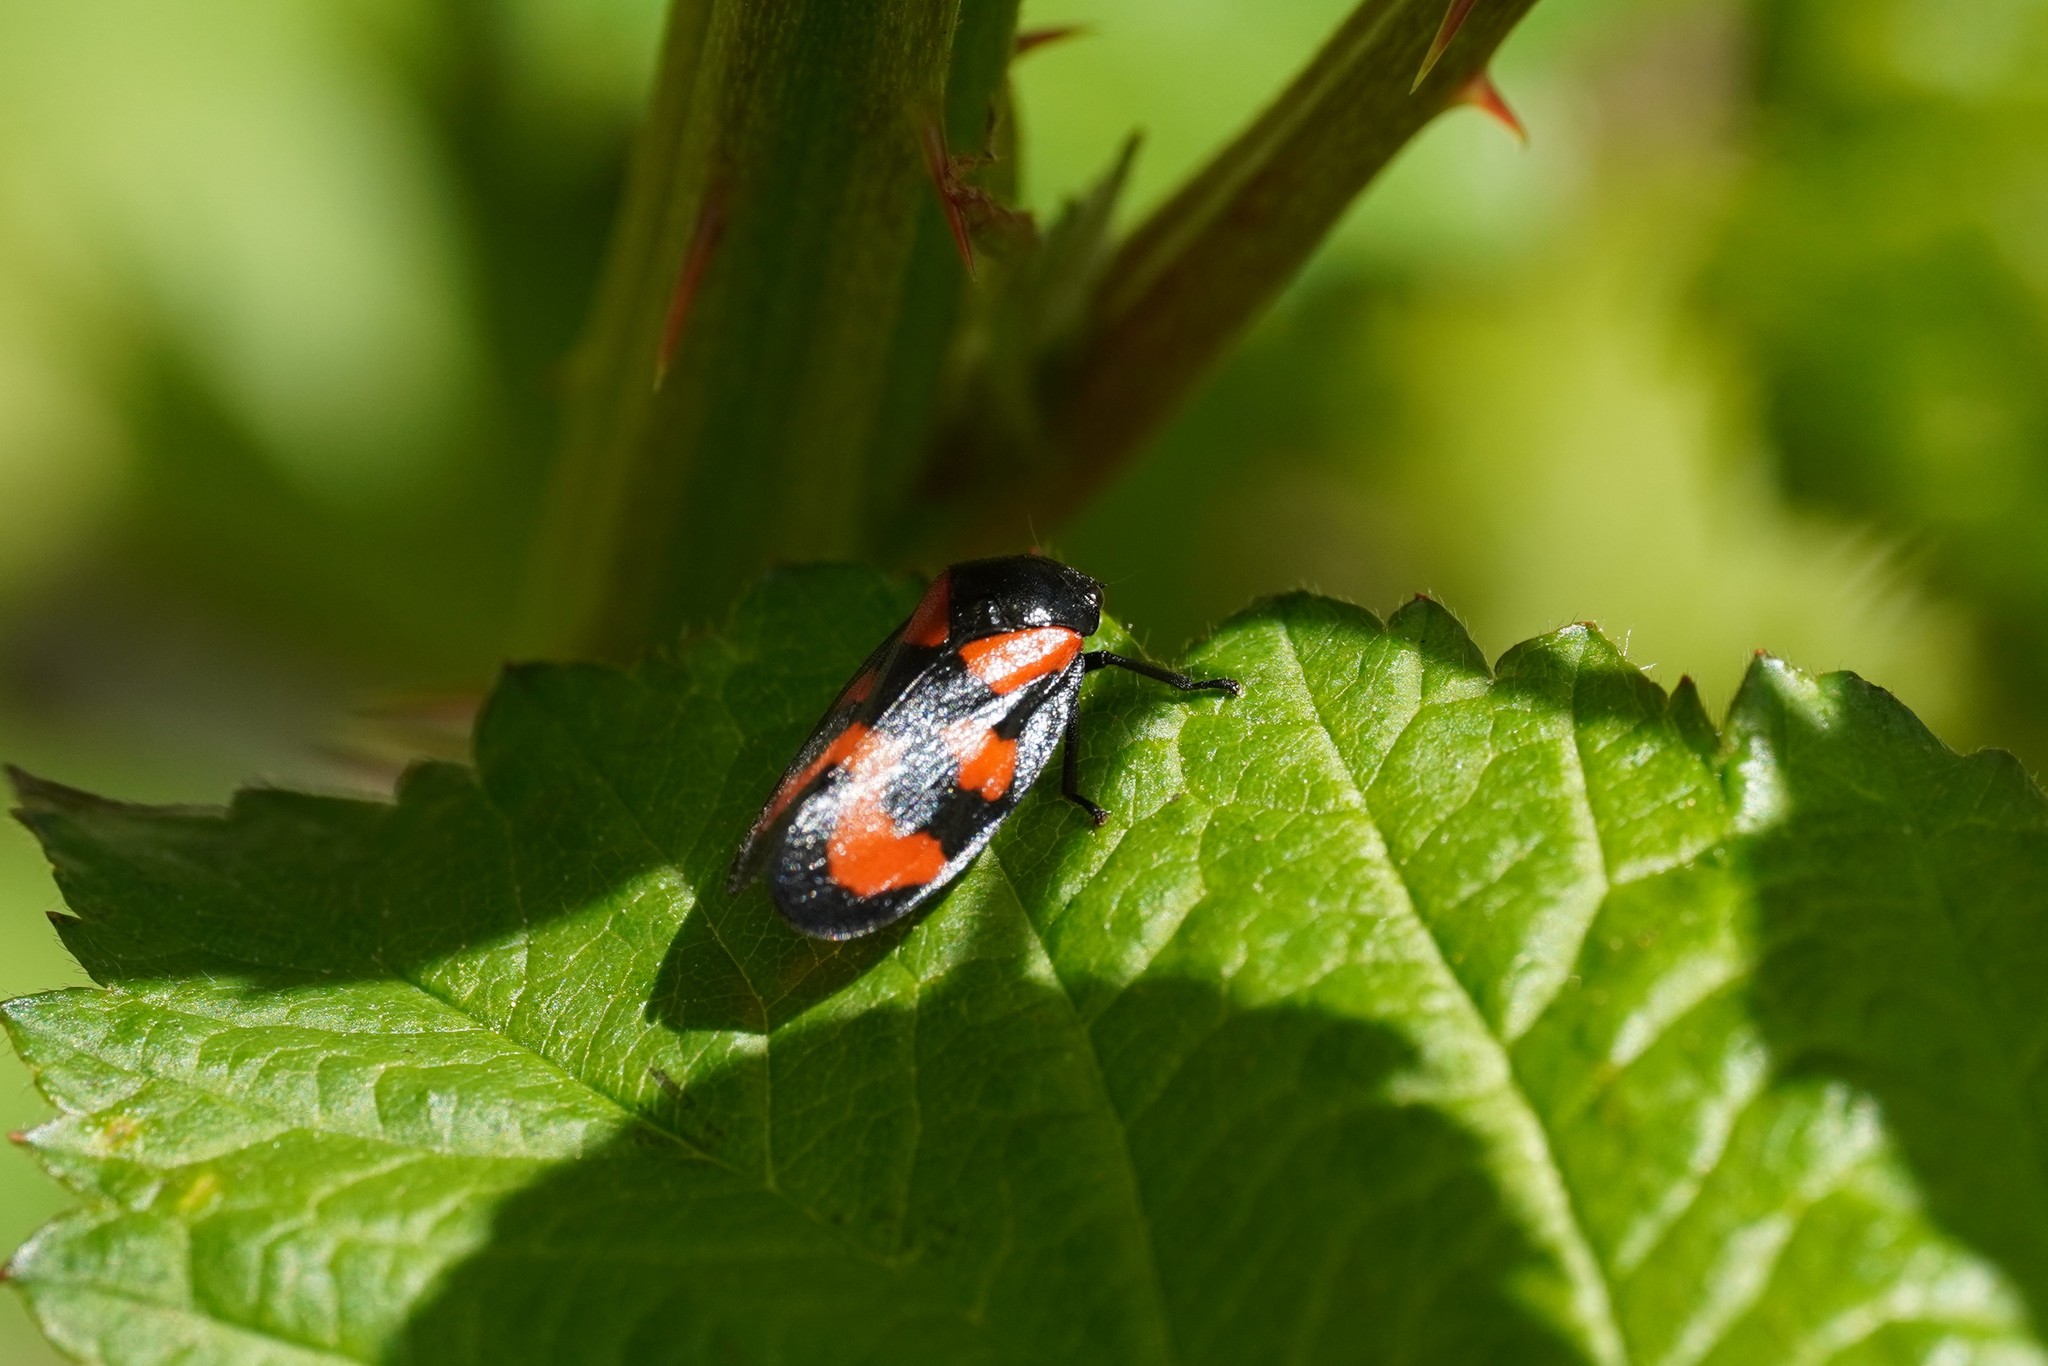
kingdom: Animalia
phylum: Arthropoda
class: Insecta
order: Hemiptera
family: Cercopidae
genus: Cercopis
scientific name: Cercopis vulnerata
